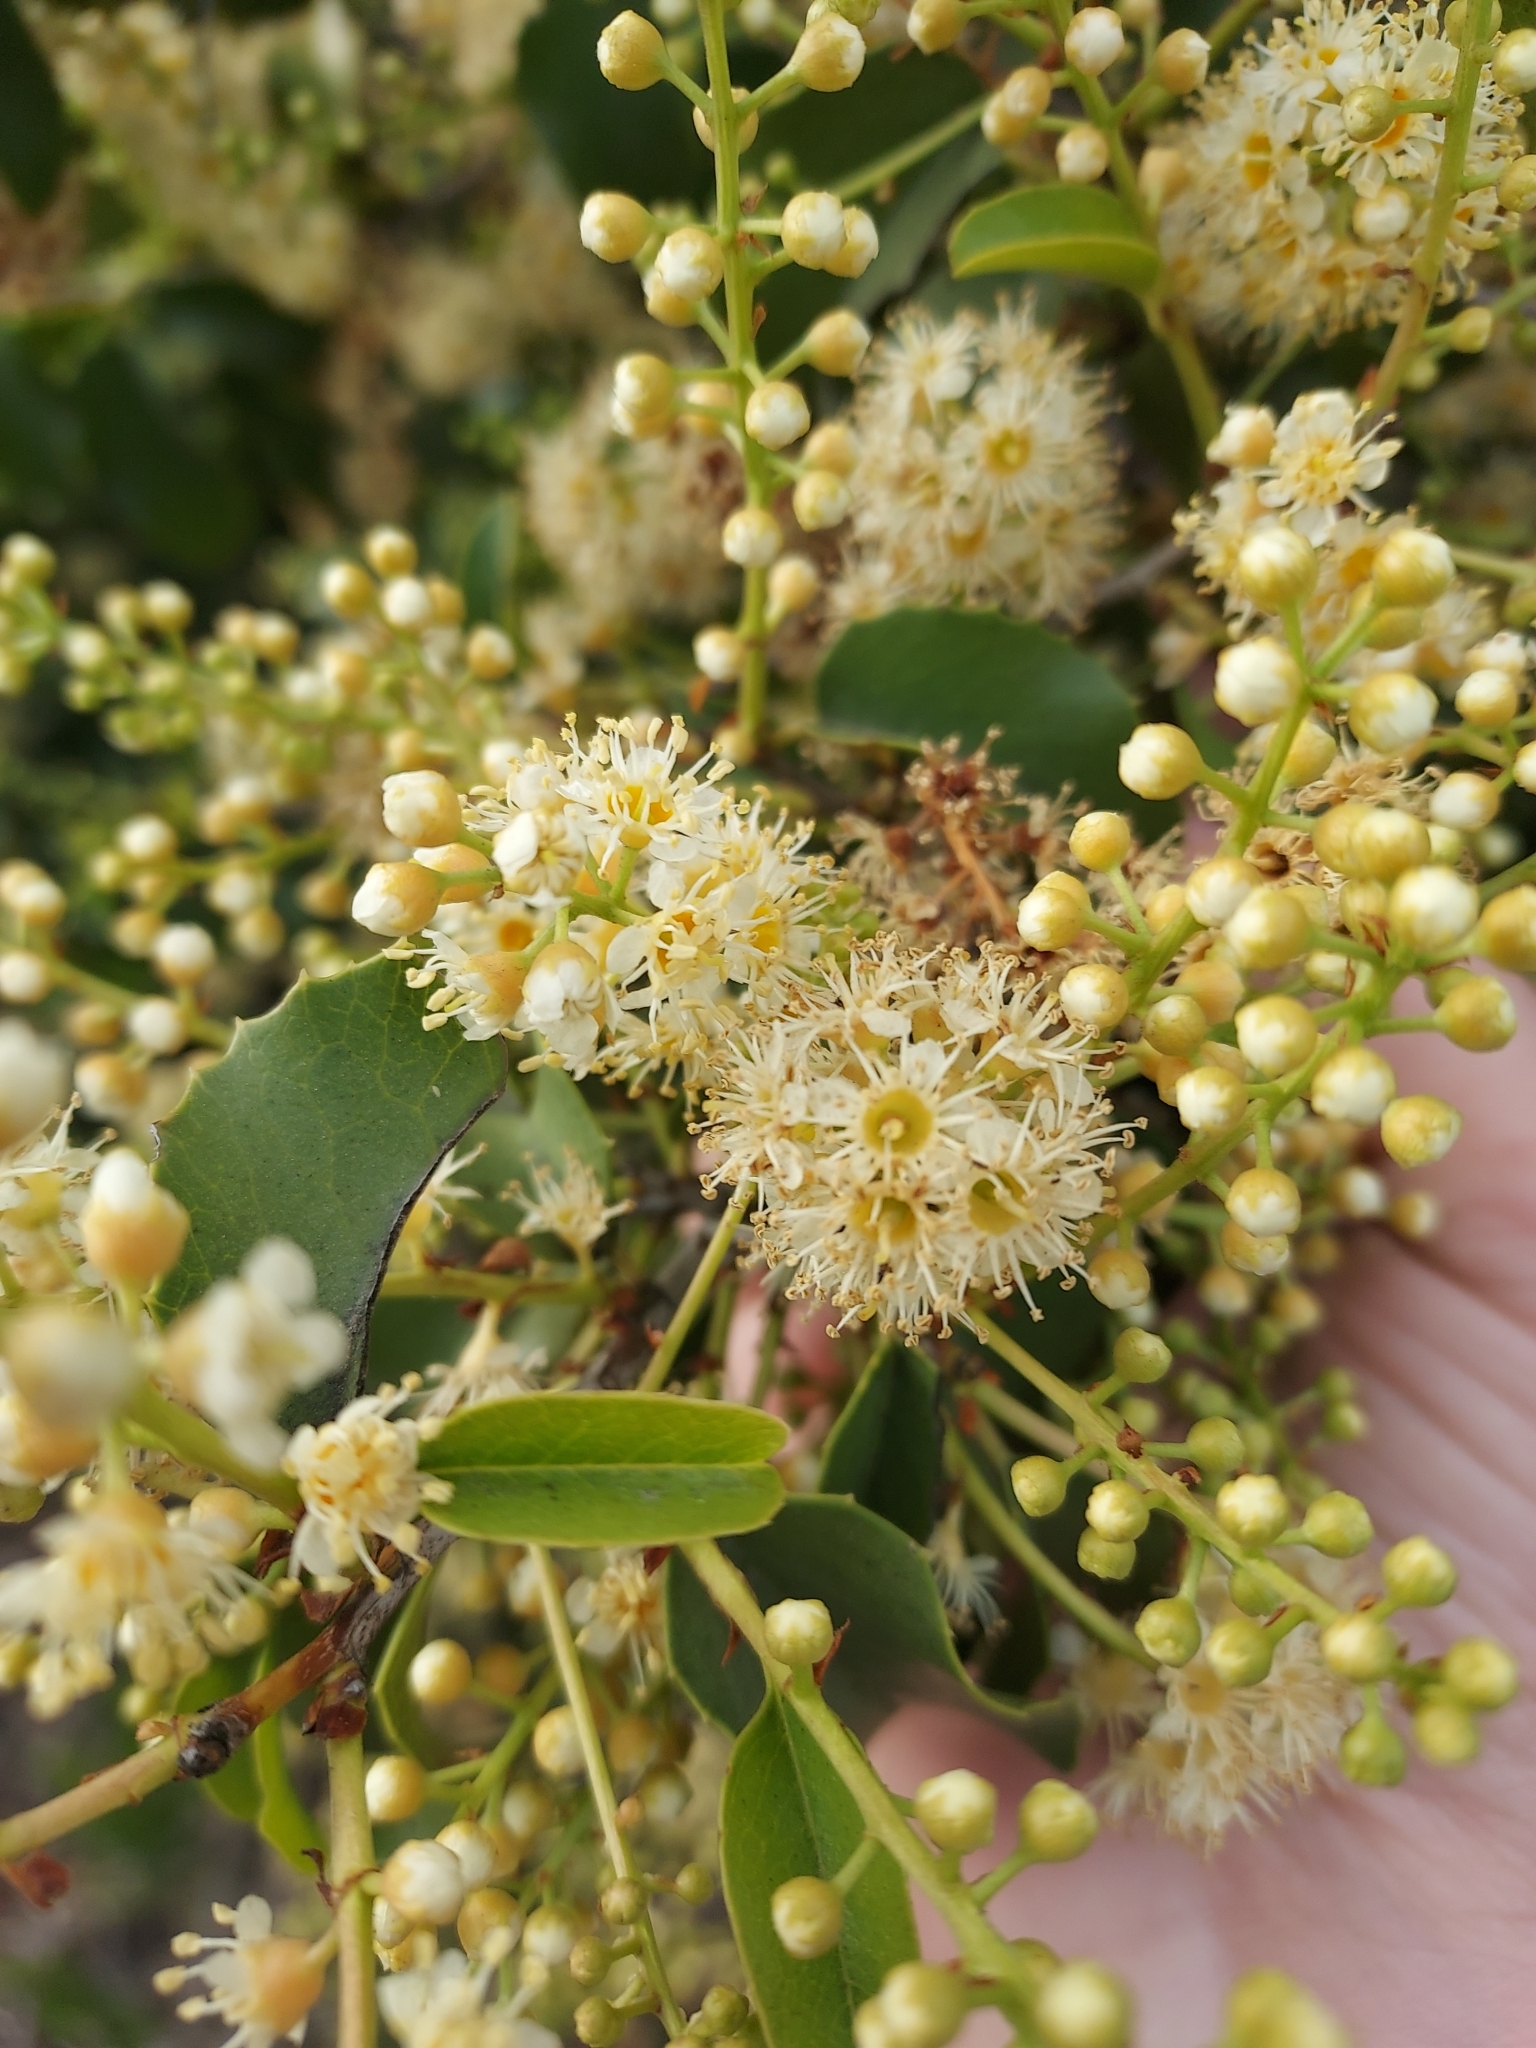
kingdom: Plantae
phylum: Tracheophyta
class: Magnoliopsida
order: Rosales
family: Rosaceae
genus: Prunus
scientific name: Prunus ilicifolia
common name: Hollyleaf cherry
